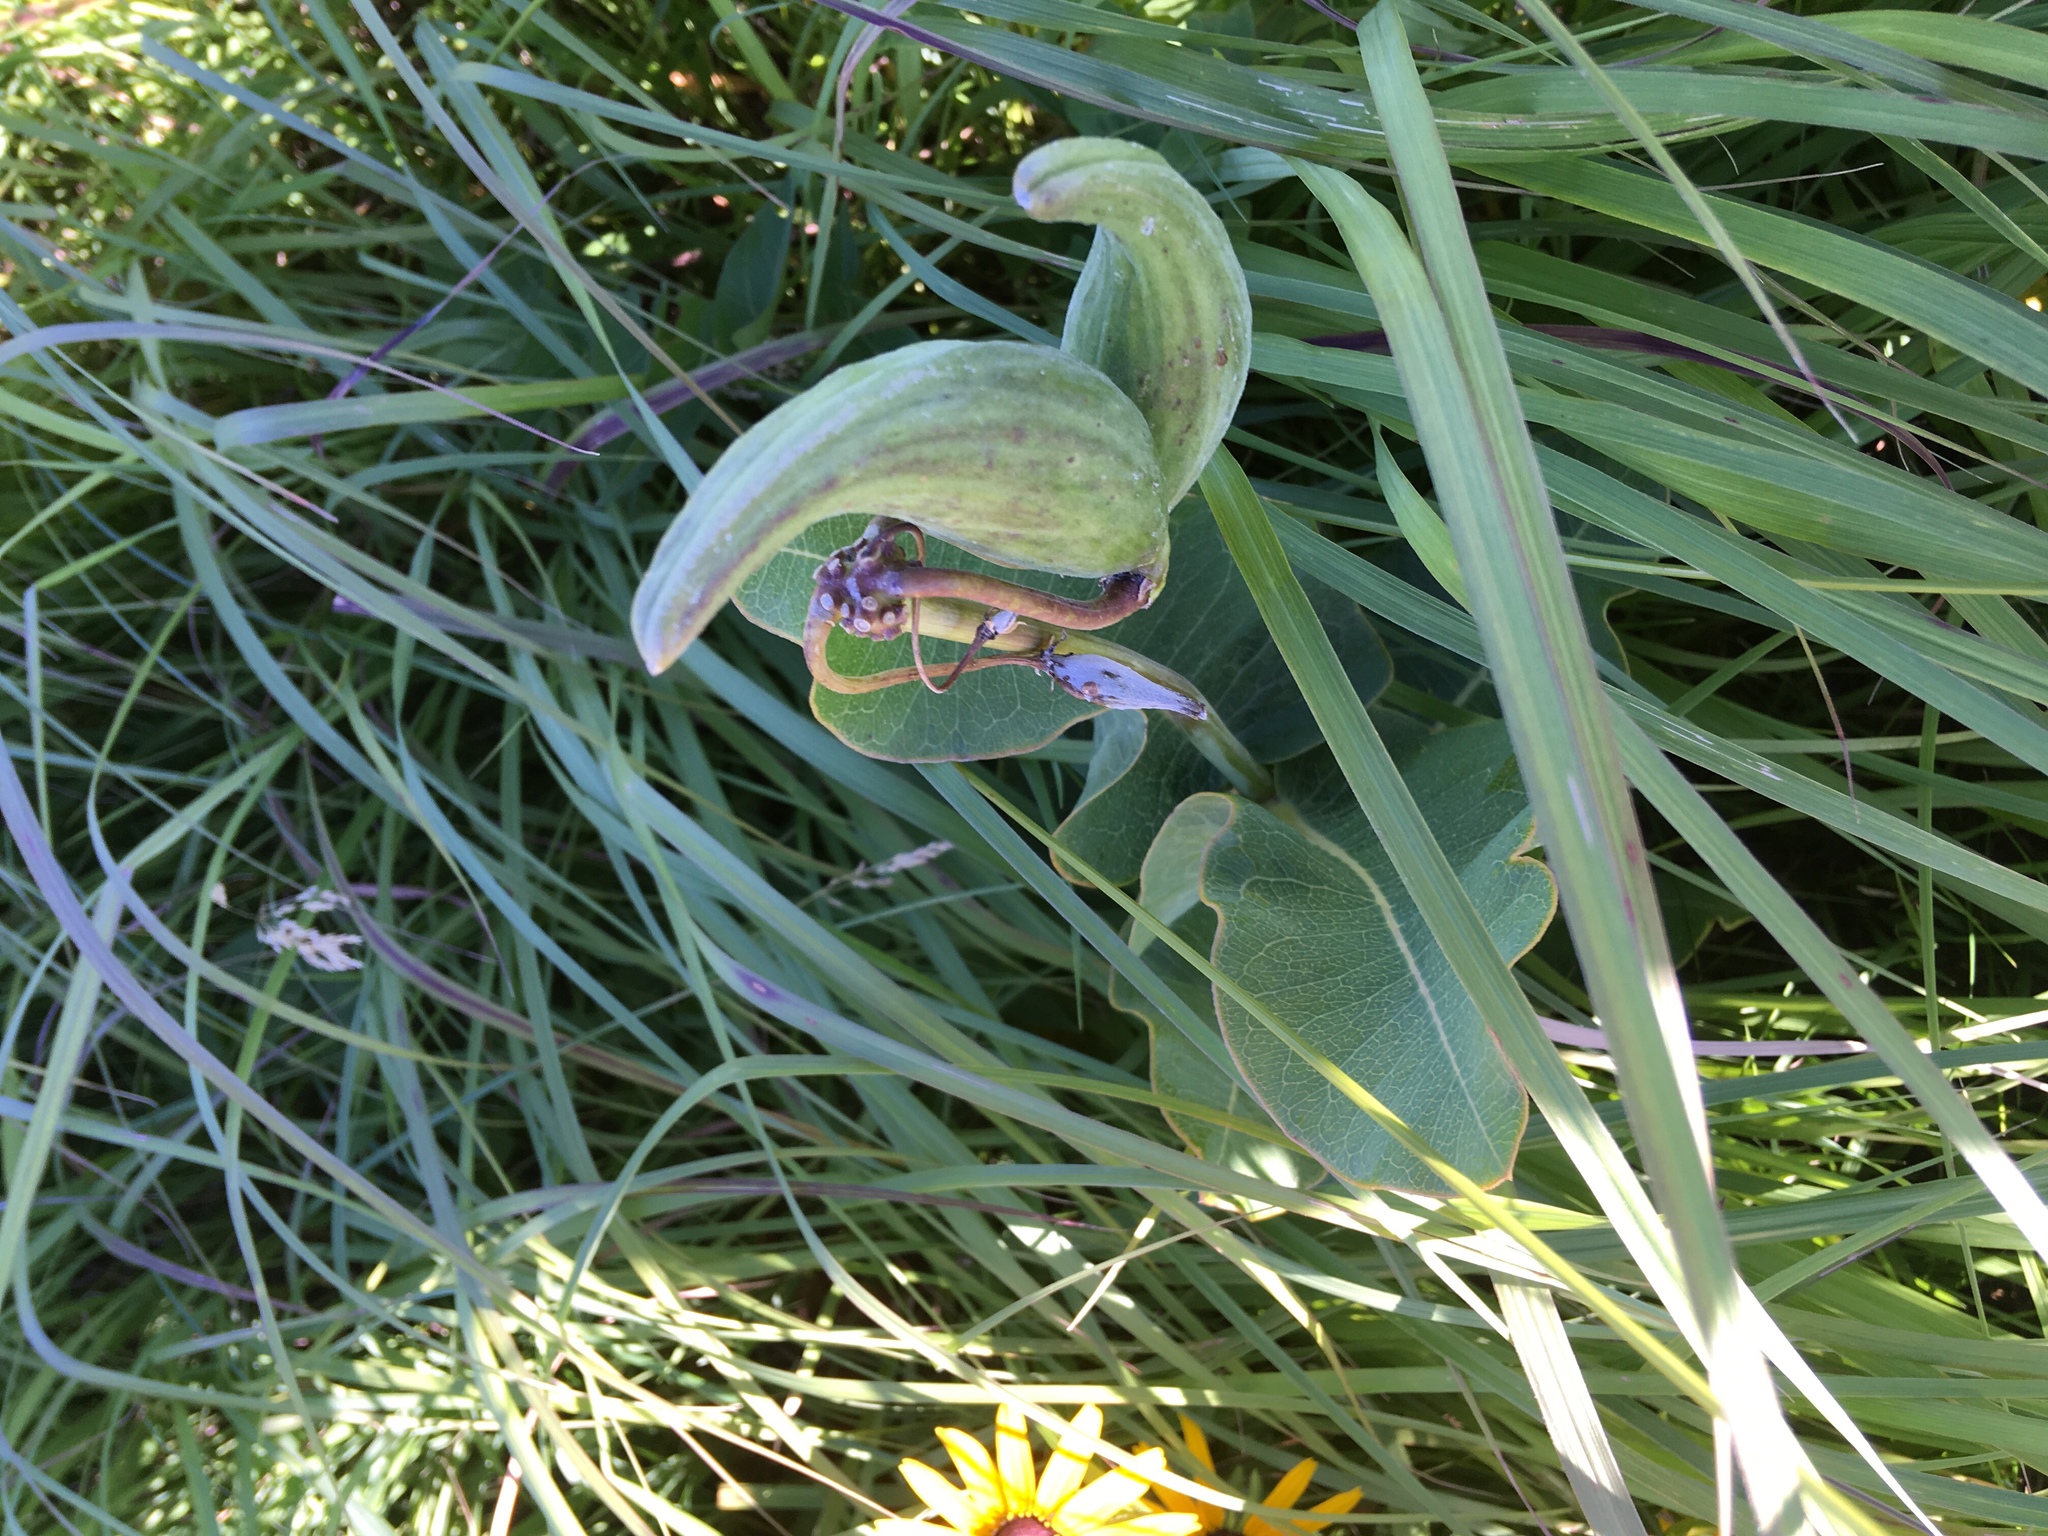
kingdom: Plantae
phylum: Tracheophyta
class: Magnoliopsida
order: Gentianales
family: Apocynaceae
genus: Asclepias
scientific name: Asclepias amplexicaulis
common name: Blunt-leaf milkweed
